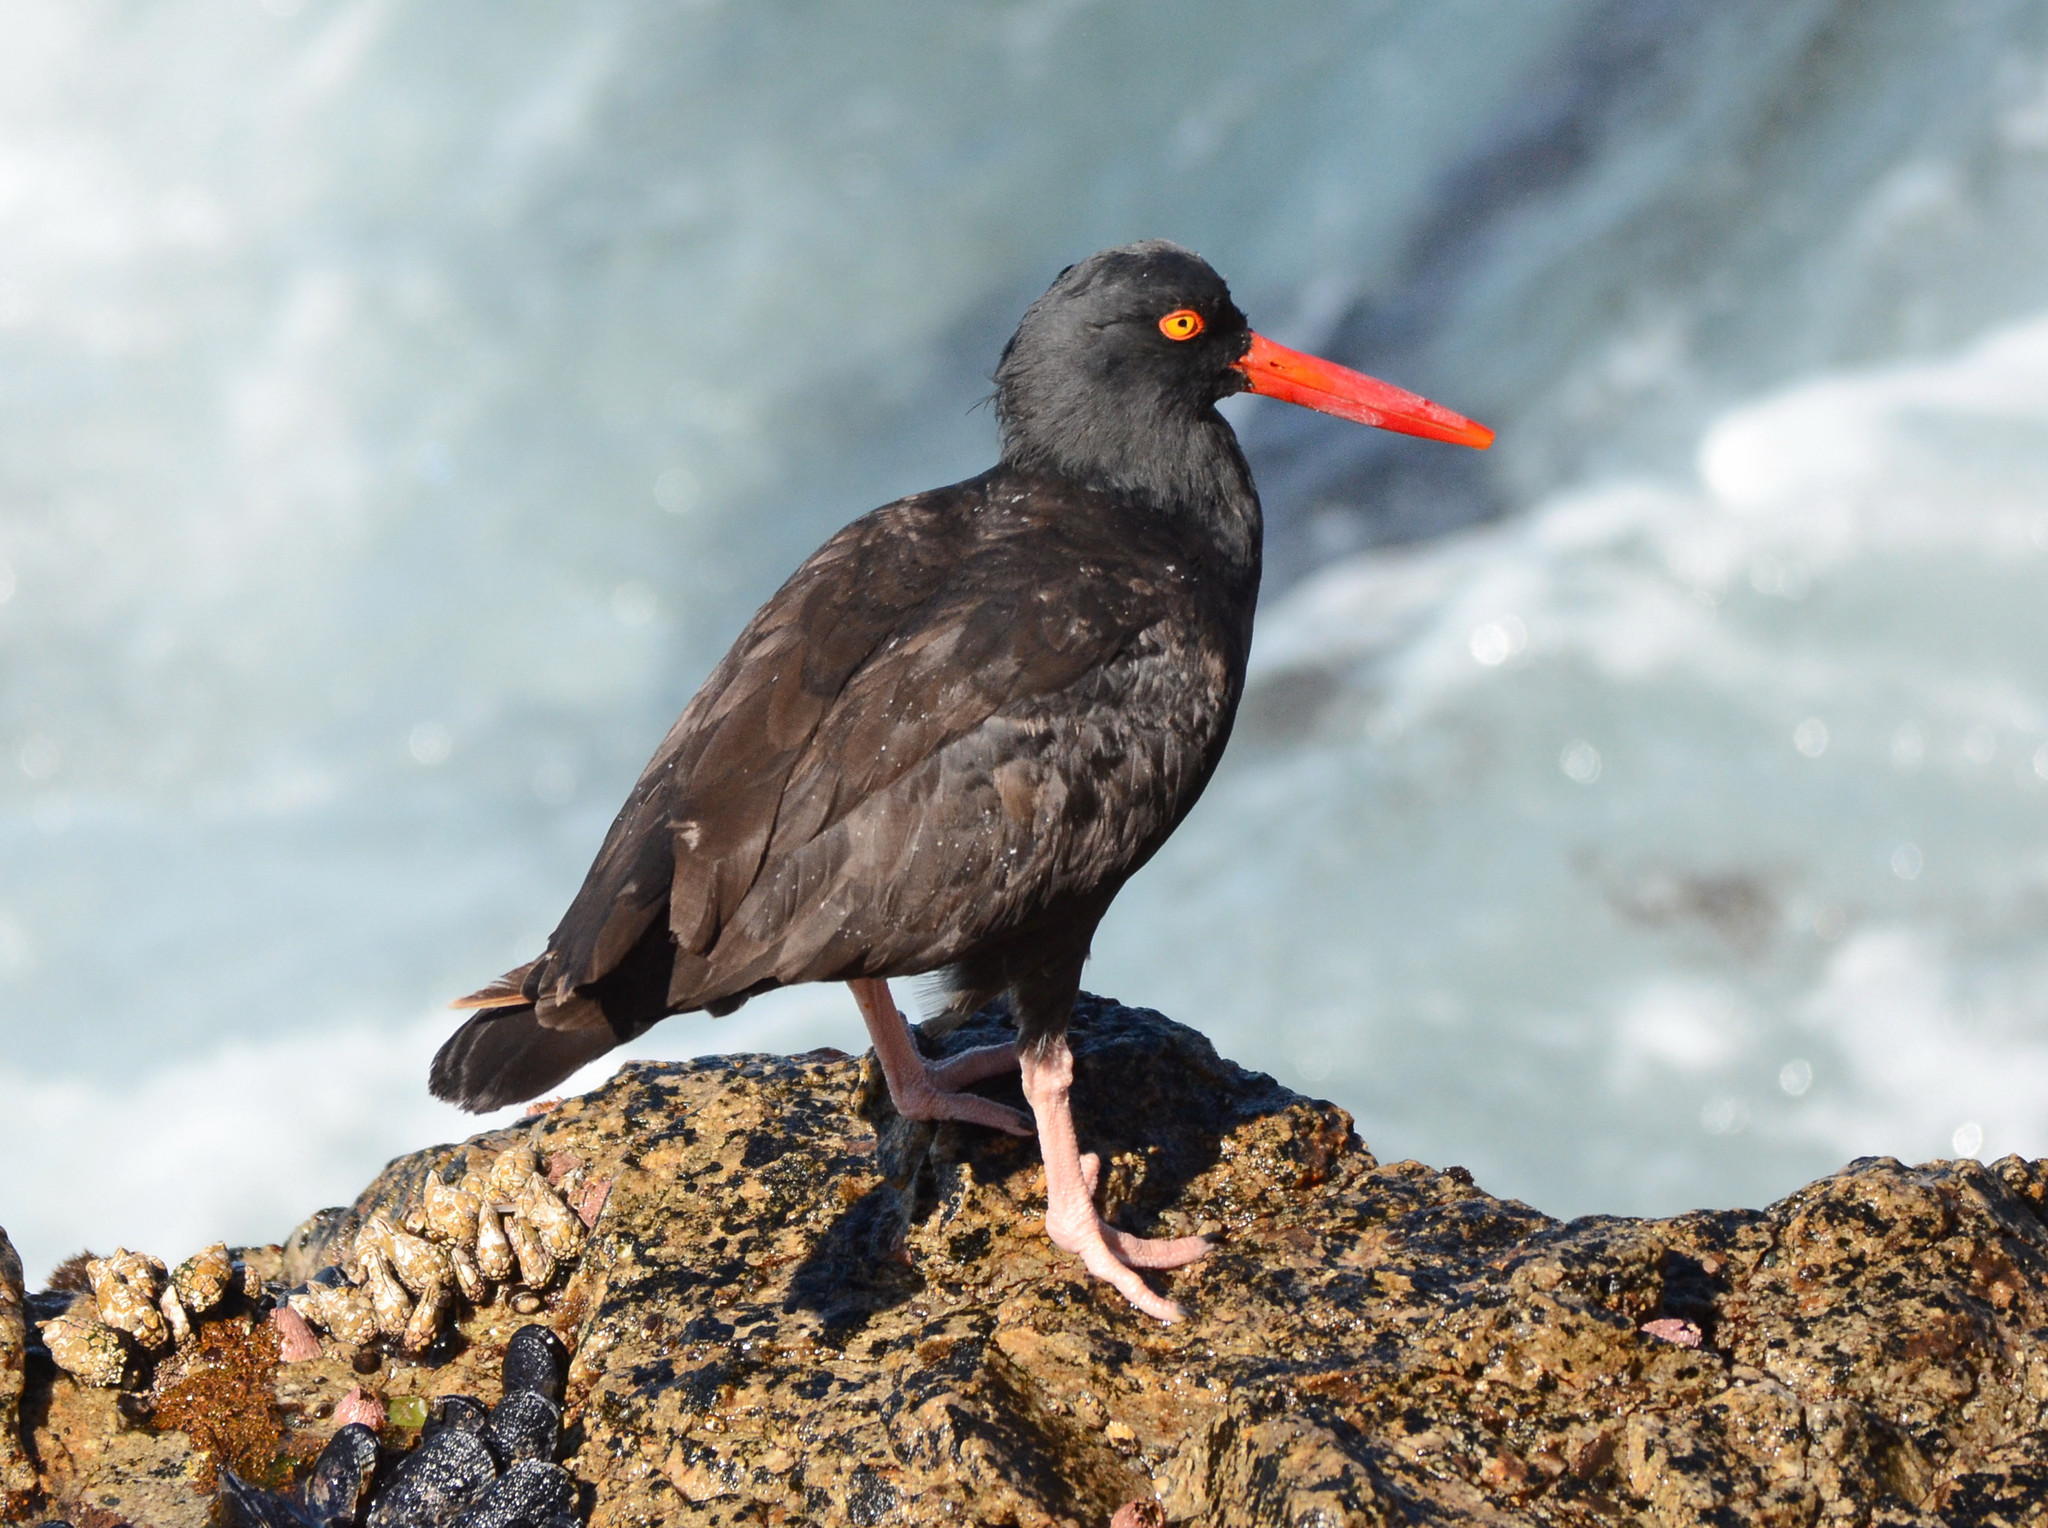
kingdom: Animalia
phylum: Chordata
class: Aves
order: Charadriiformes
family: Haematopodidae
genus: Haematopus
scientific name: Haematopus bachmani
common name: Black oystercatcher
